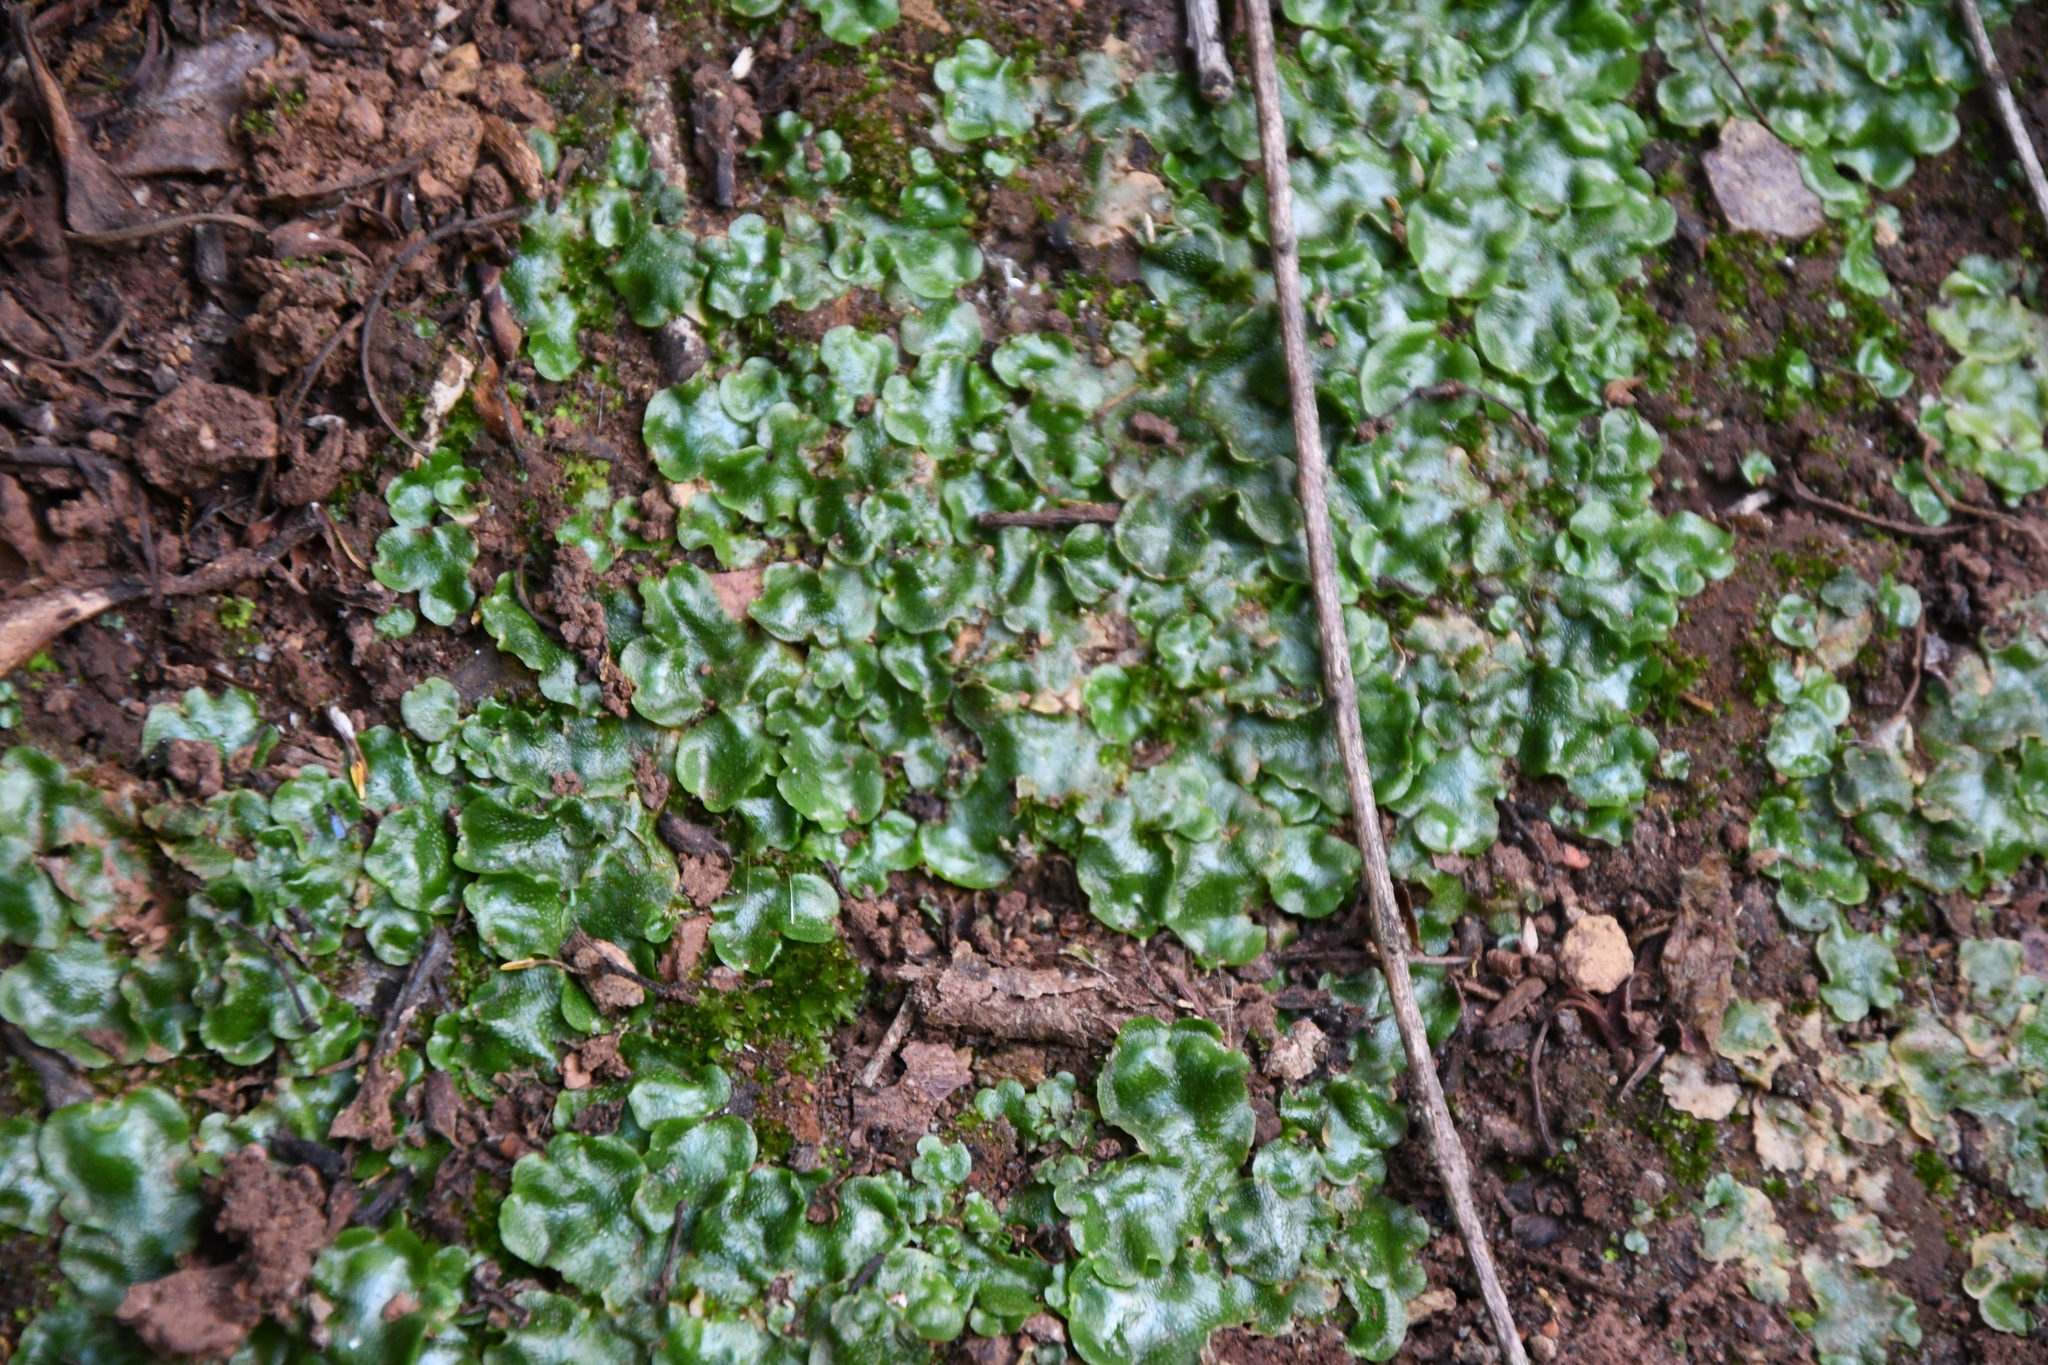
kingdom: Plantae
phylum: Marchantiophyta
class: Marchantiopsida
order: Lunulariales
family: Lunulariaceae
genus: Lunularia
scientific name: Lunularia cruciata
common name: Crescent-cup liverwort
